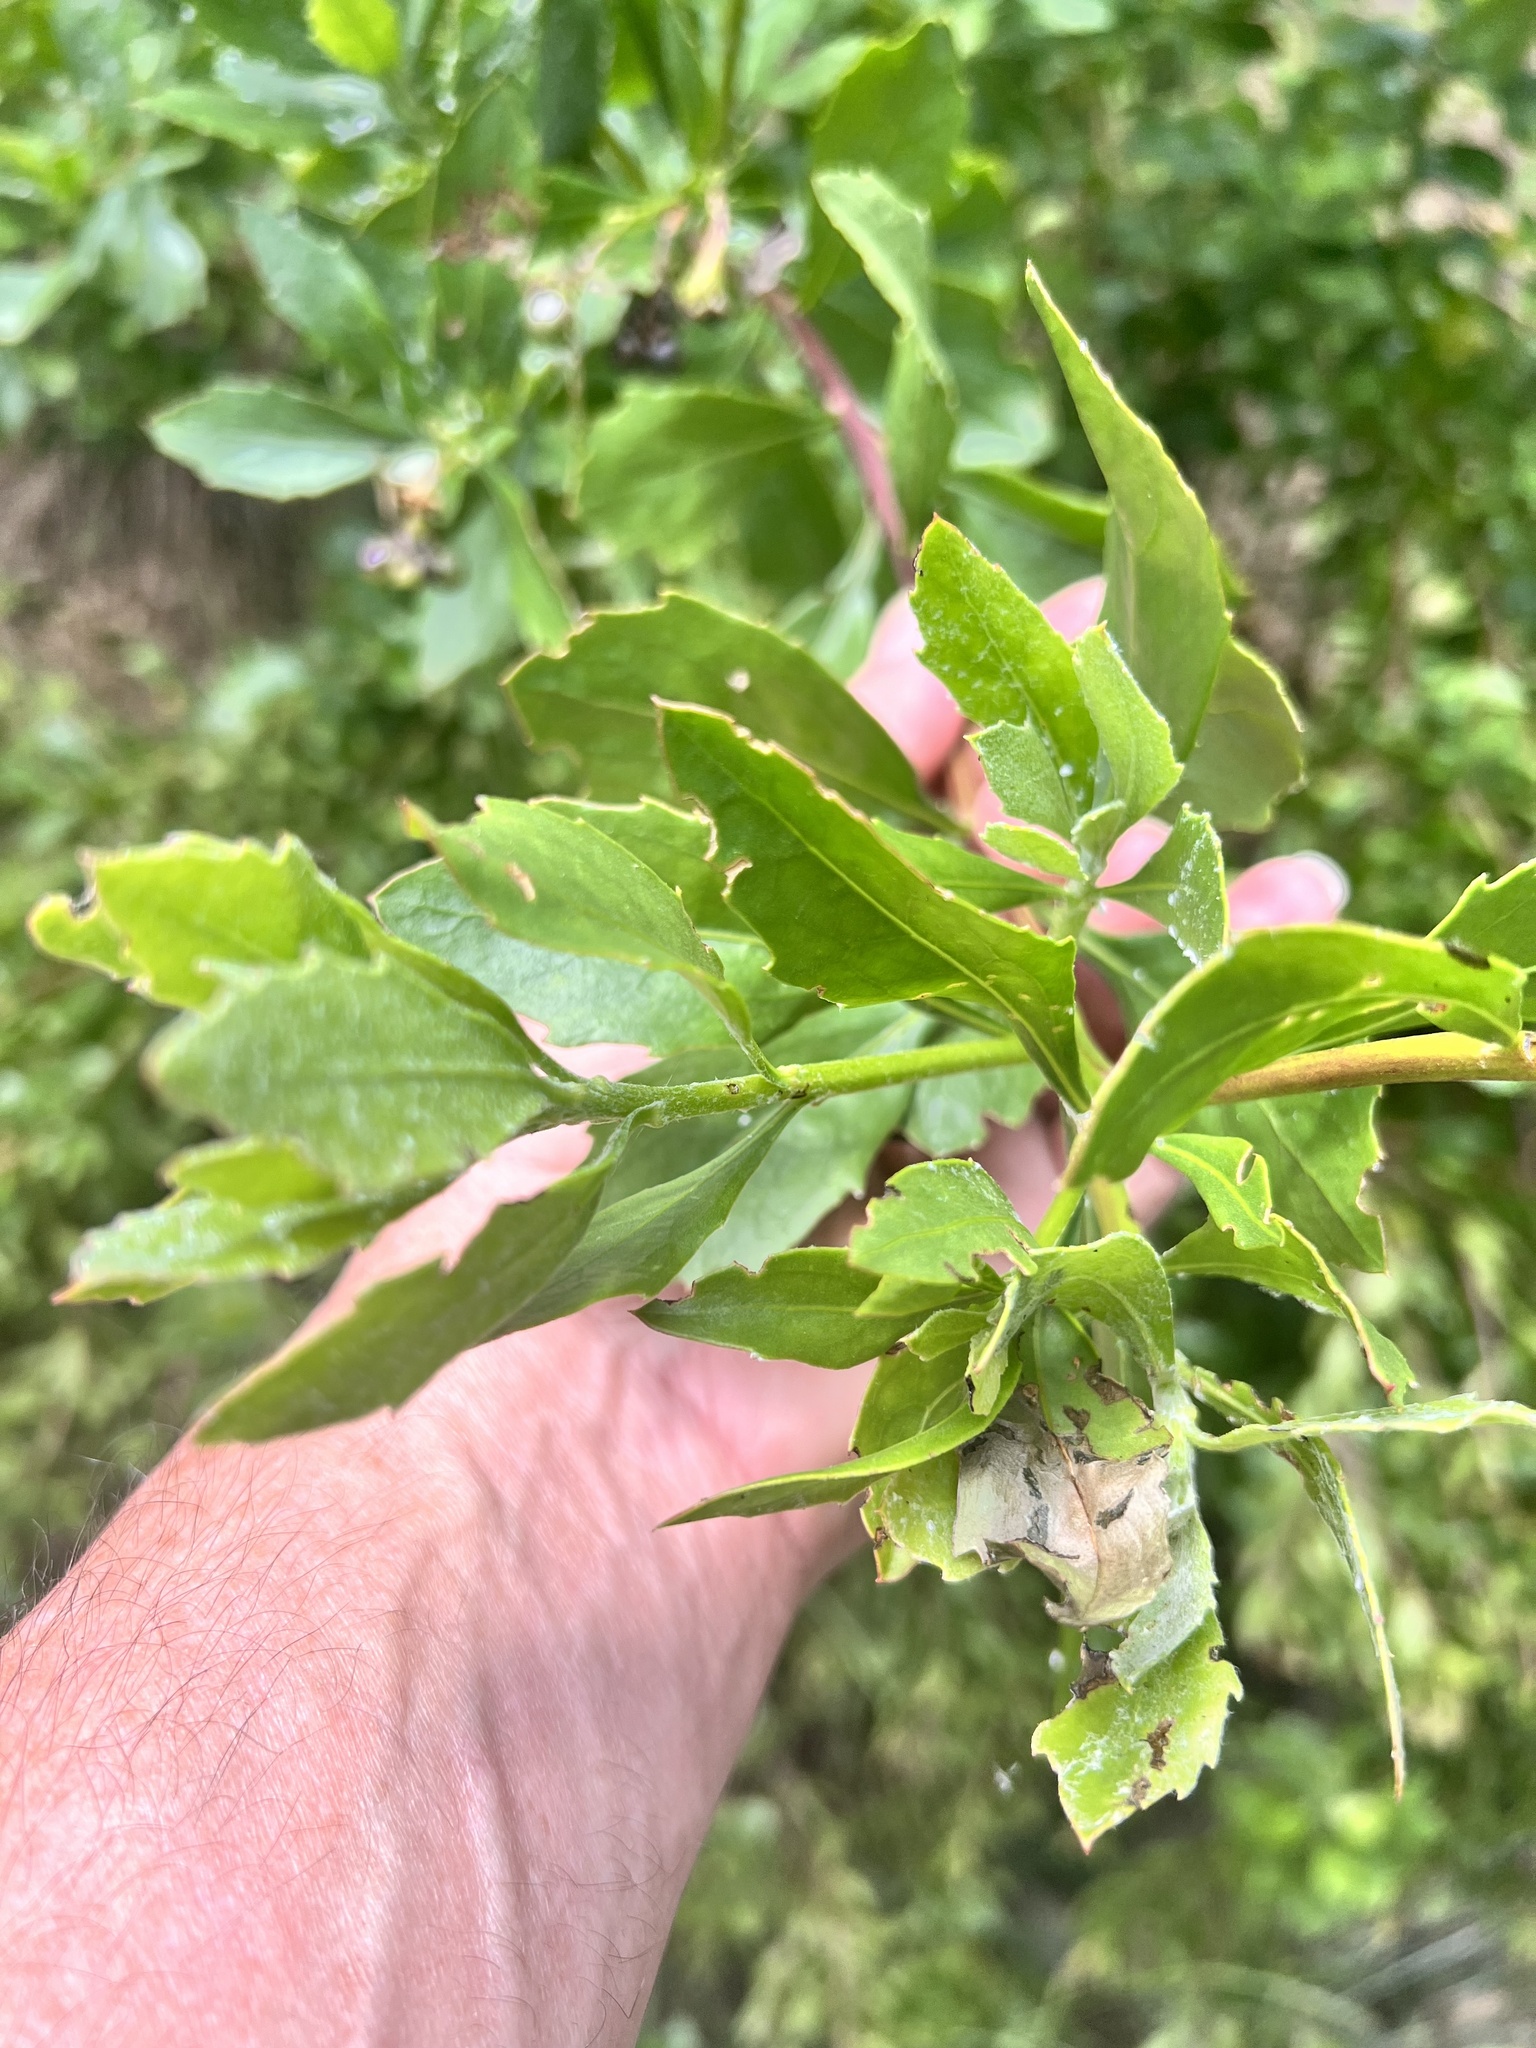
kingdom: Plantae
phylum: Tracheophyta
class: Magnoliopsida
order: Asterales
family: Asteraceae
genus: Osteospermum
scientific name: Osteospermum moniliferum
